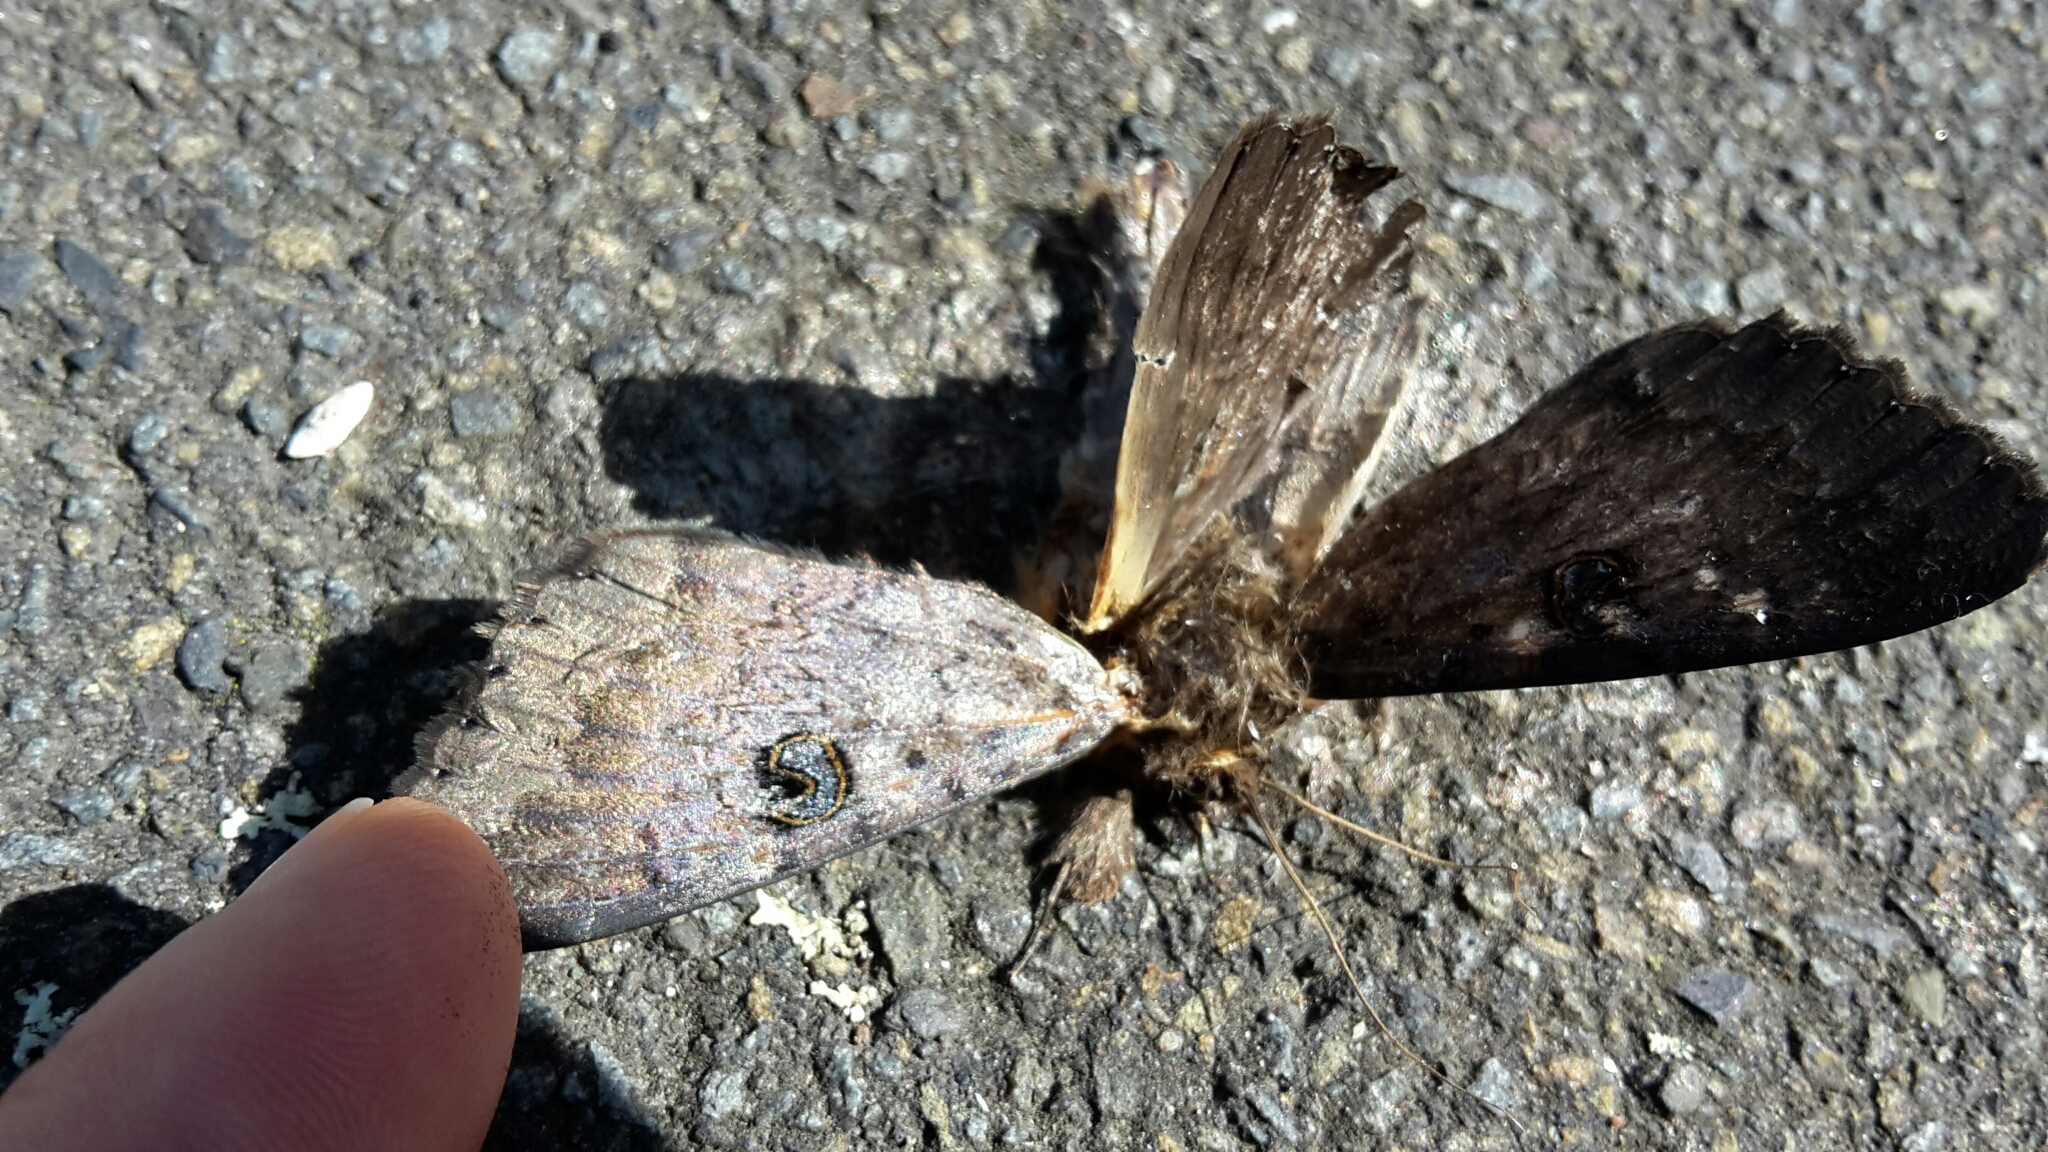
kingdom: Animalia
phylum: Arthropoda
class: Insecta
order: Lepidoptera
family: Erebidae
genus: Dasypodia
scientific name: Dasypodia cymatodes
